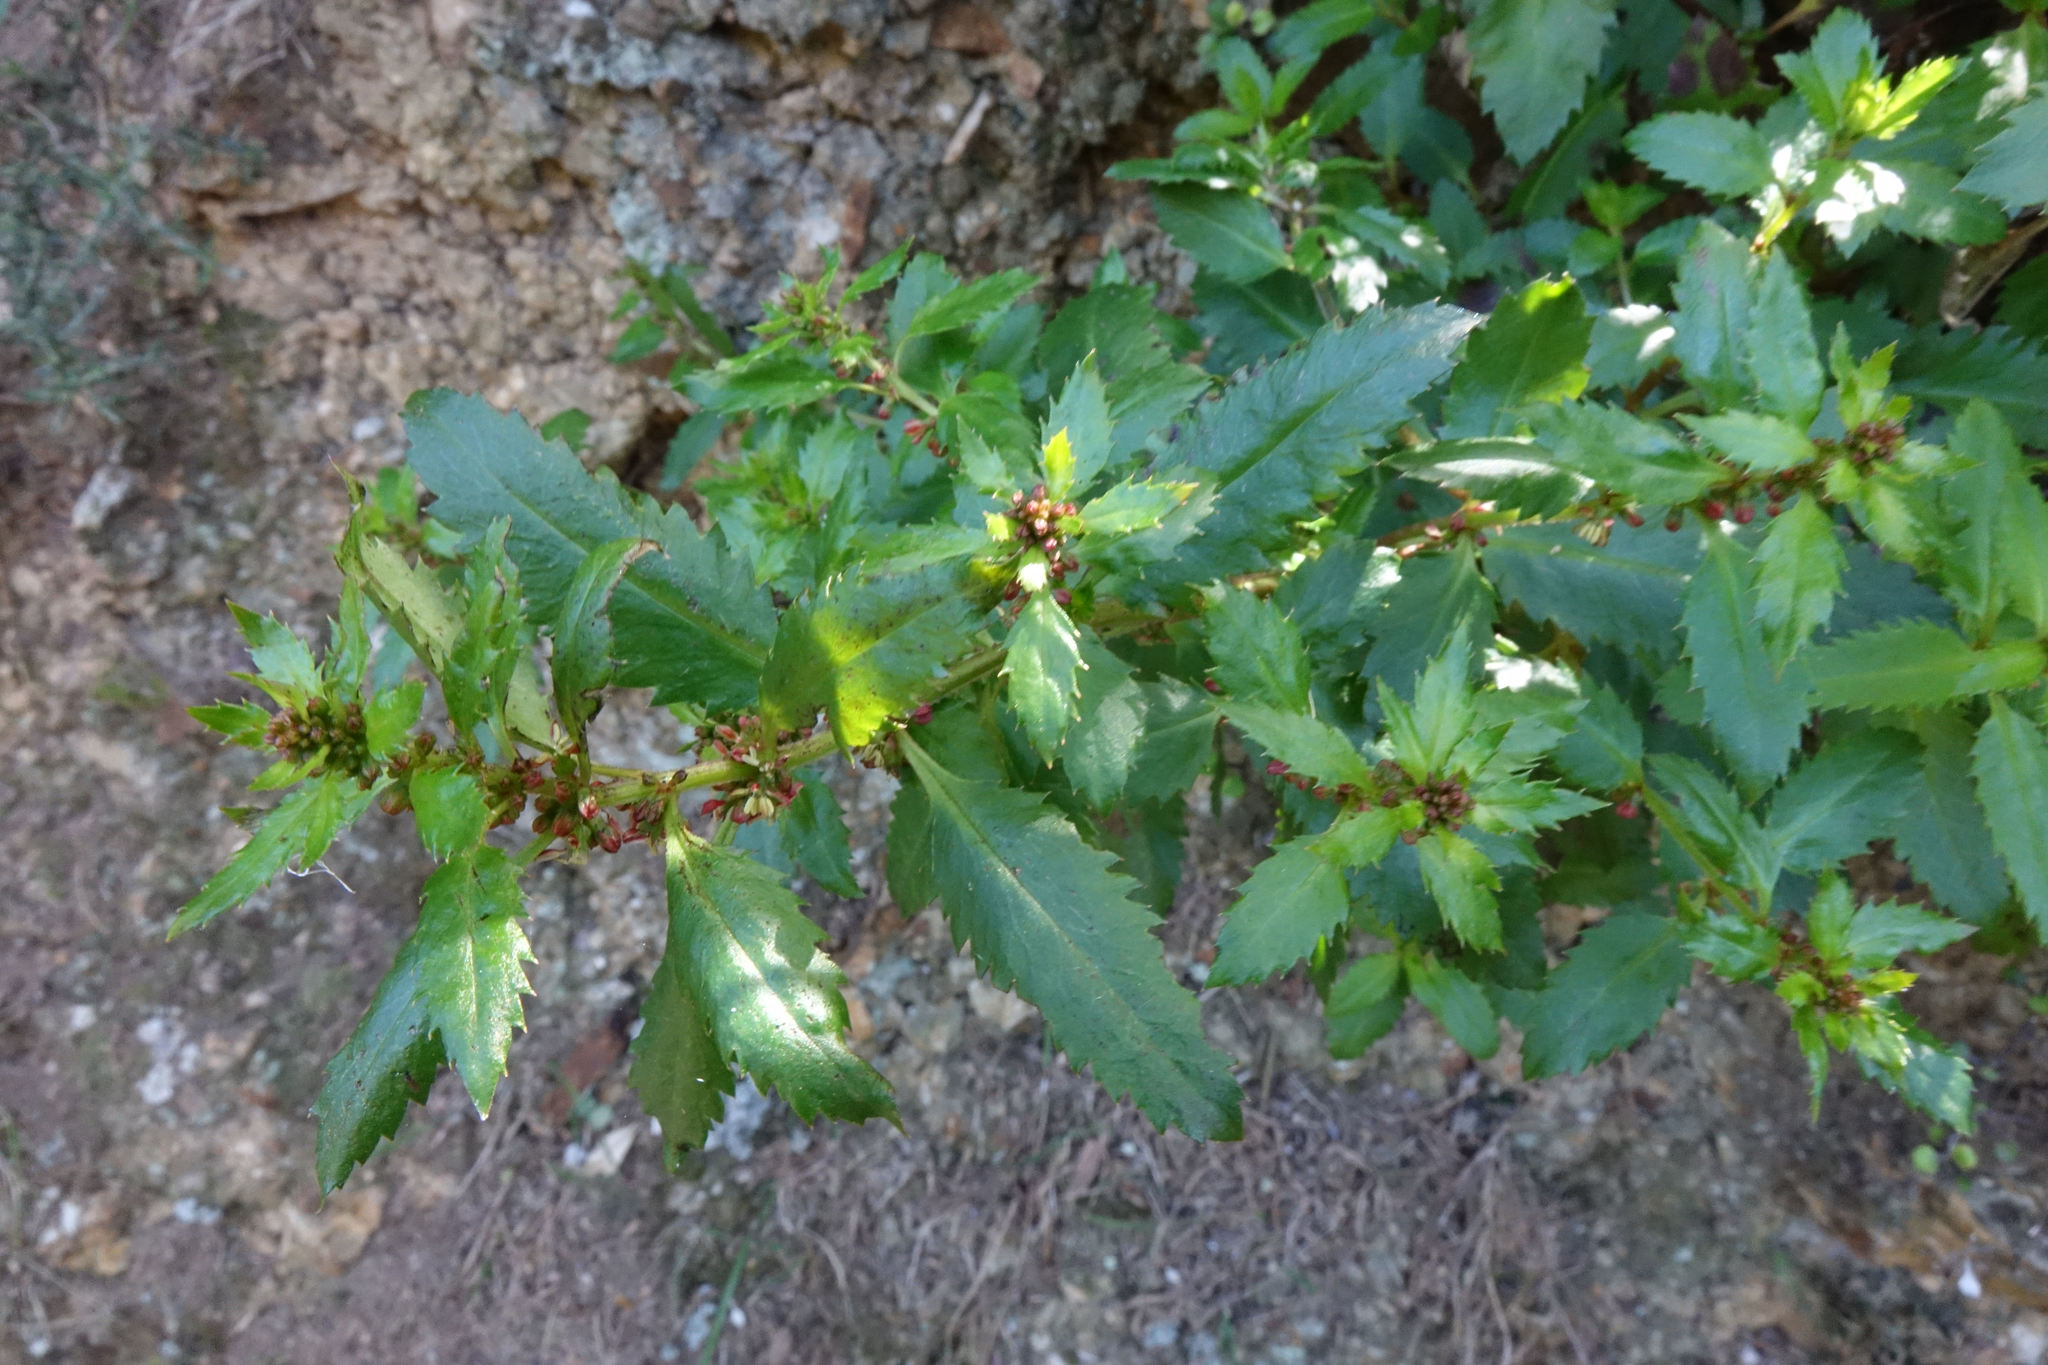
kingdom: Plantae
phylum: Tracheophyta
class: Magnoliopsida
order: Saxifragales
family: Haloragaceae
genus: Haloragis
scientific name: Haloragis erecta
